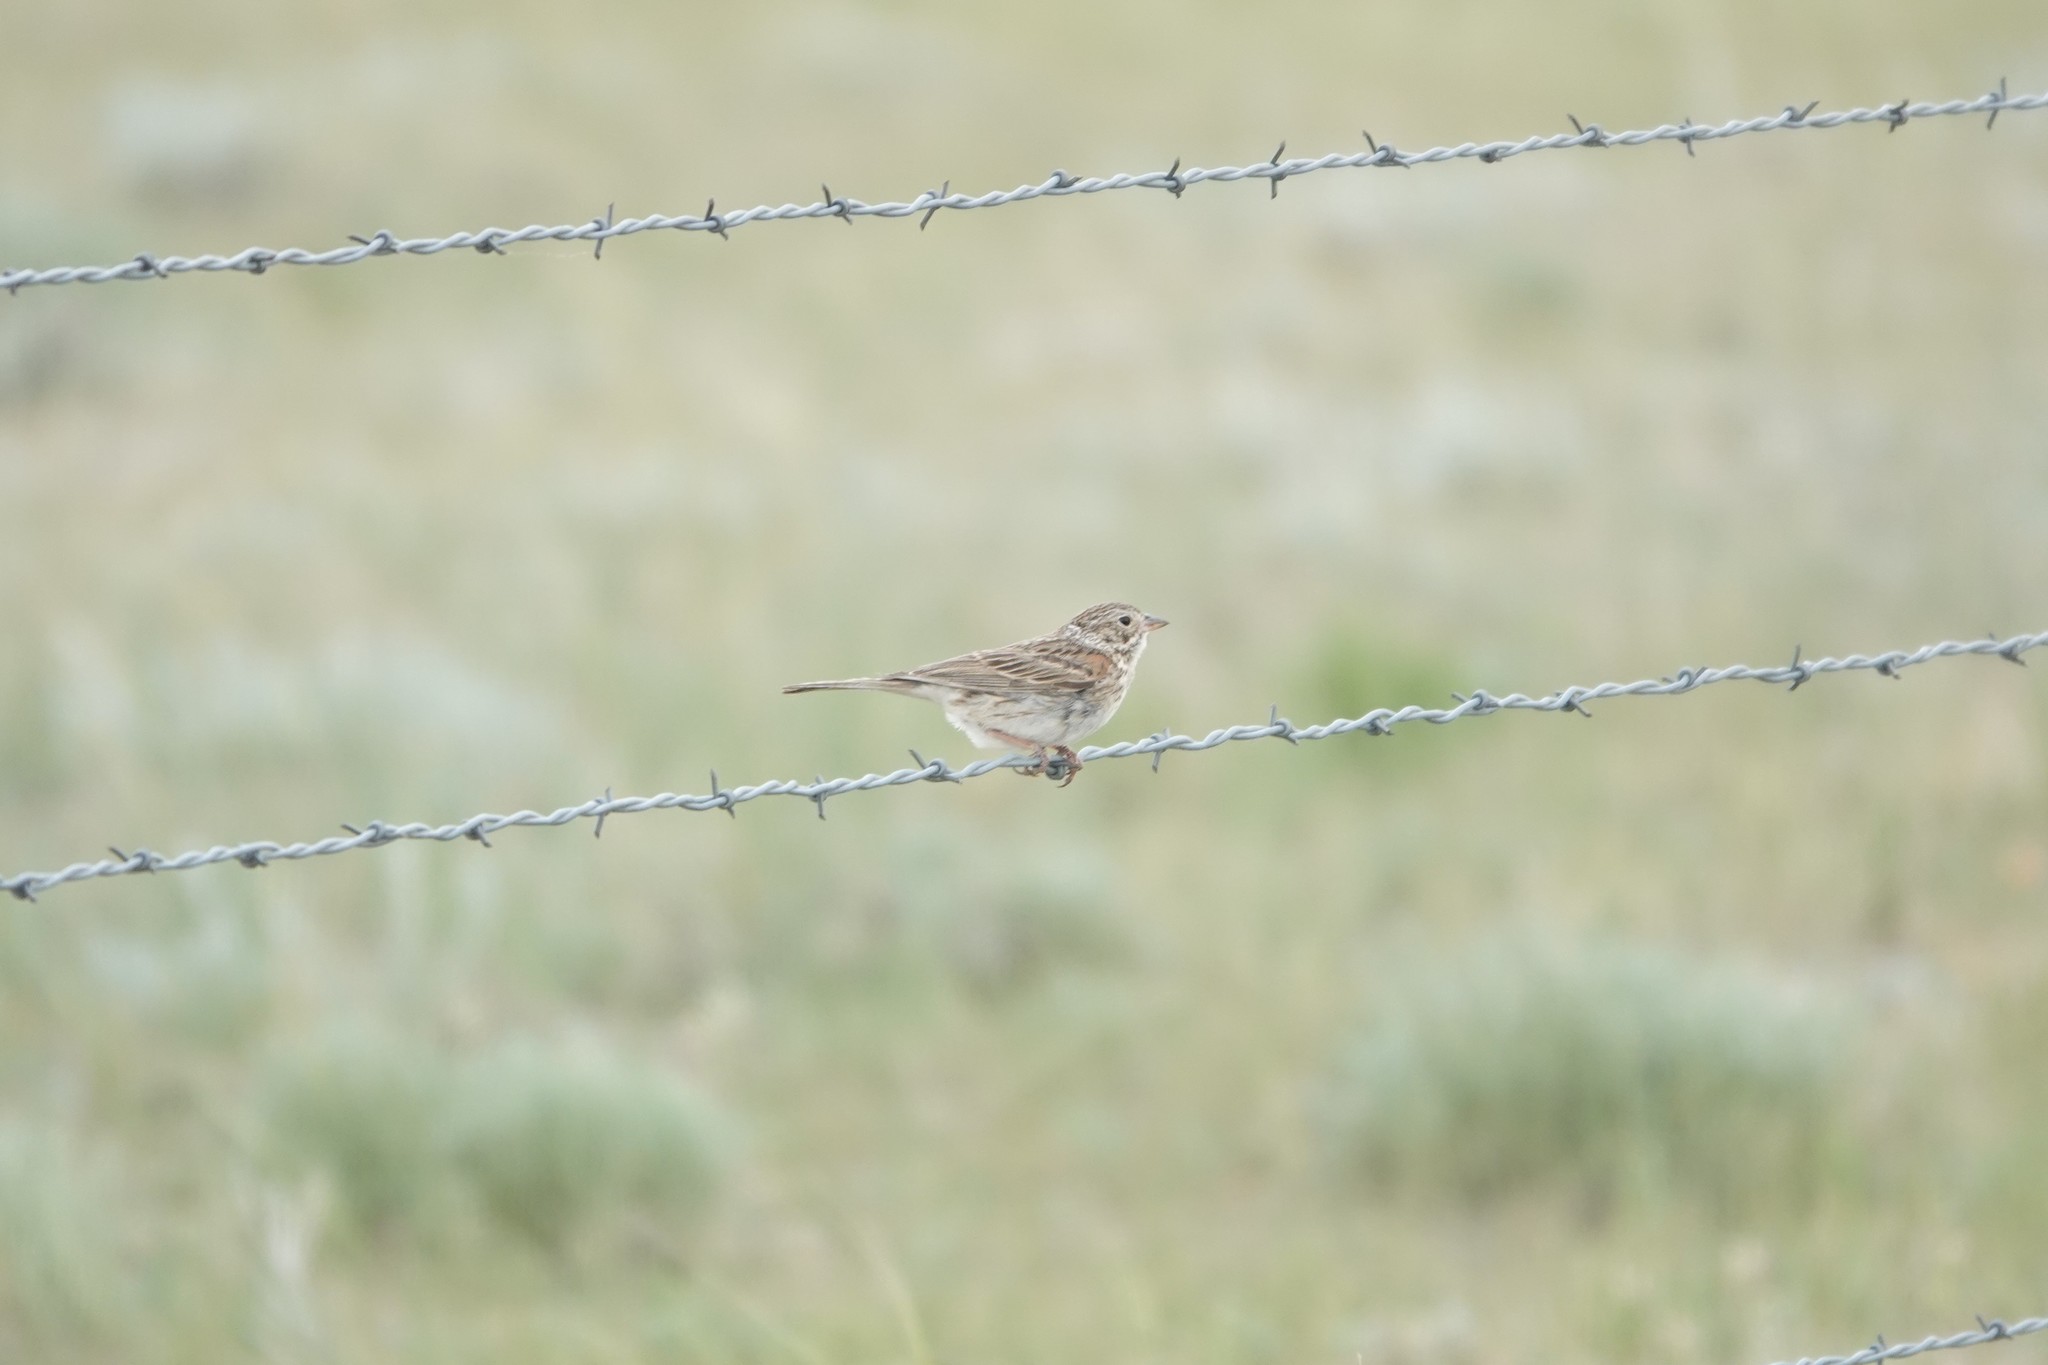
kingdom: Animalia
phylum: Chordata
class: Aves
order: Passeriformes
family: Passerellidae
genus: Pooecetes
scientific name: Pooecetes gramineus
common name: Vesper sparrow
